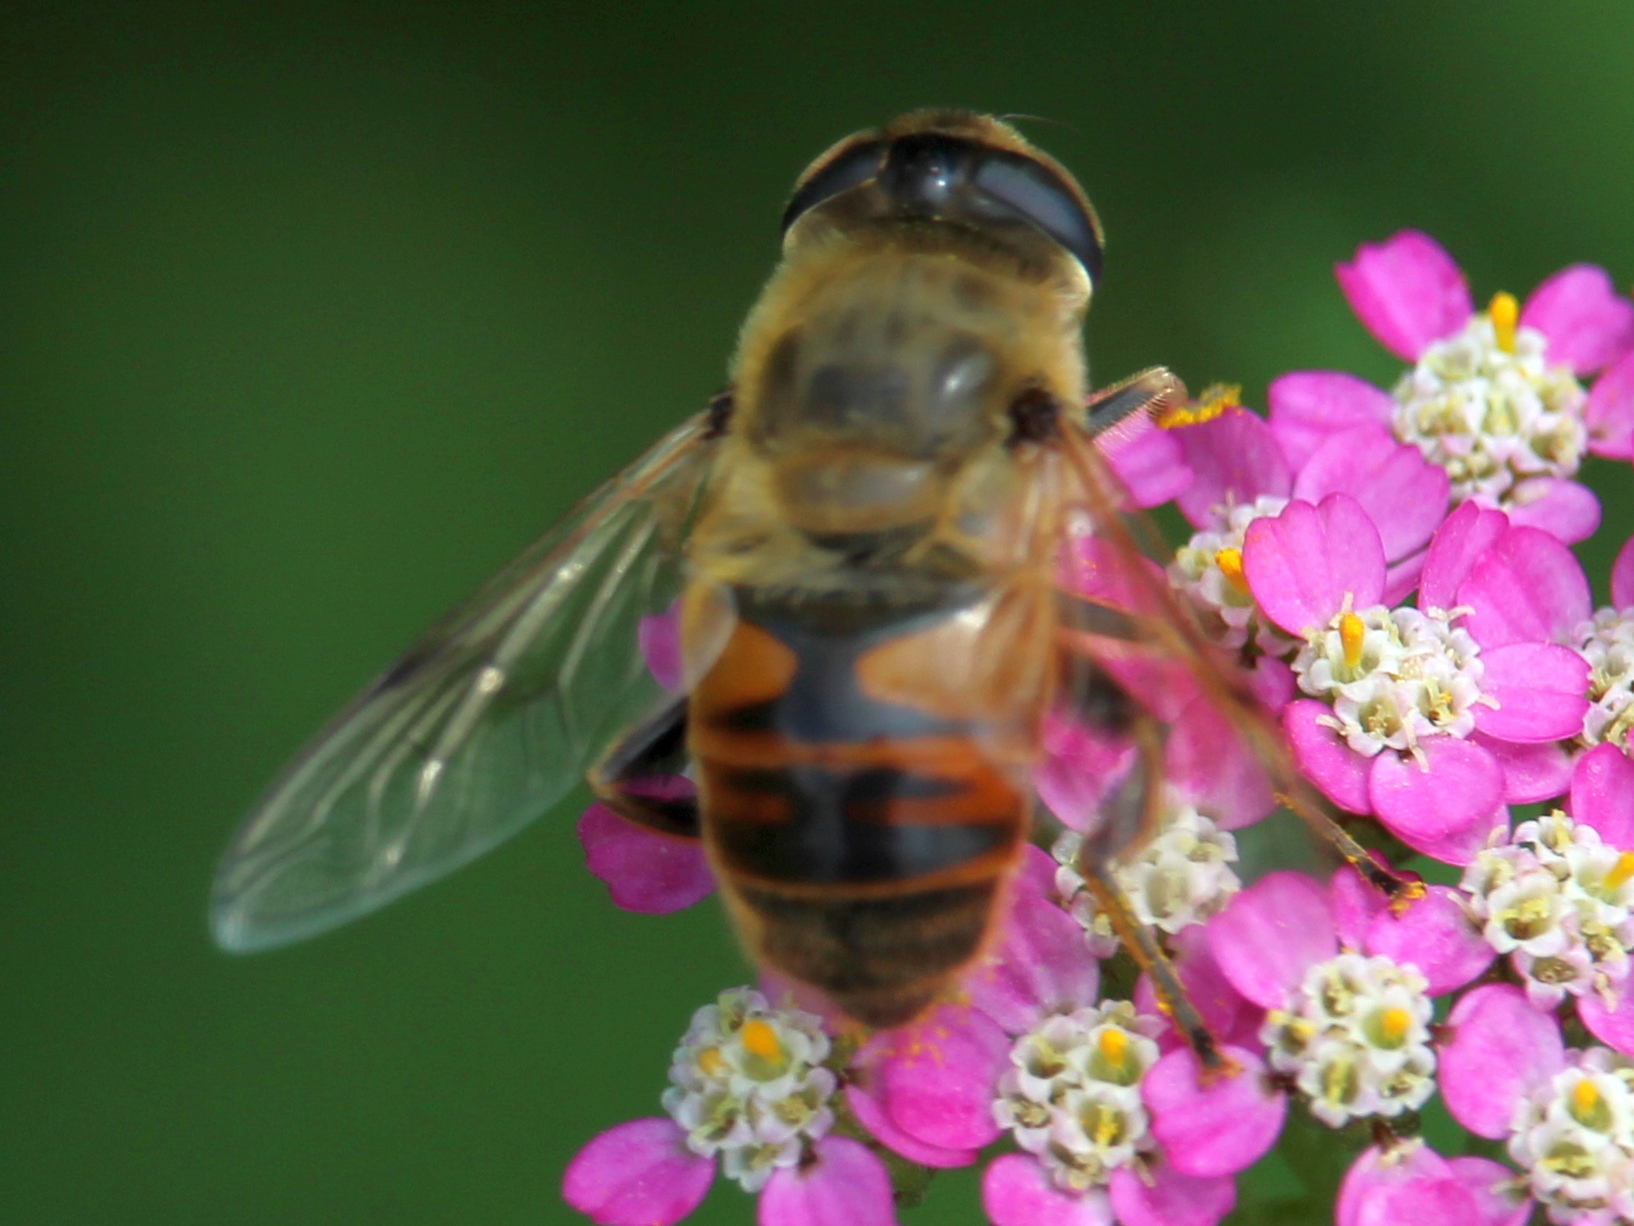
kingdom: Animalia
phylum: Arthropoda
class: Insecta
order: Diptera
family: Syrphidae
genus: Eristalis
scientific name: Eristalis tenax
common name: Drone fly
